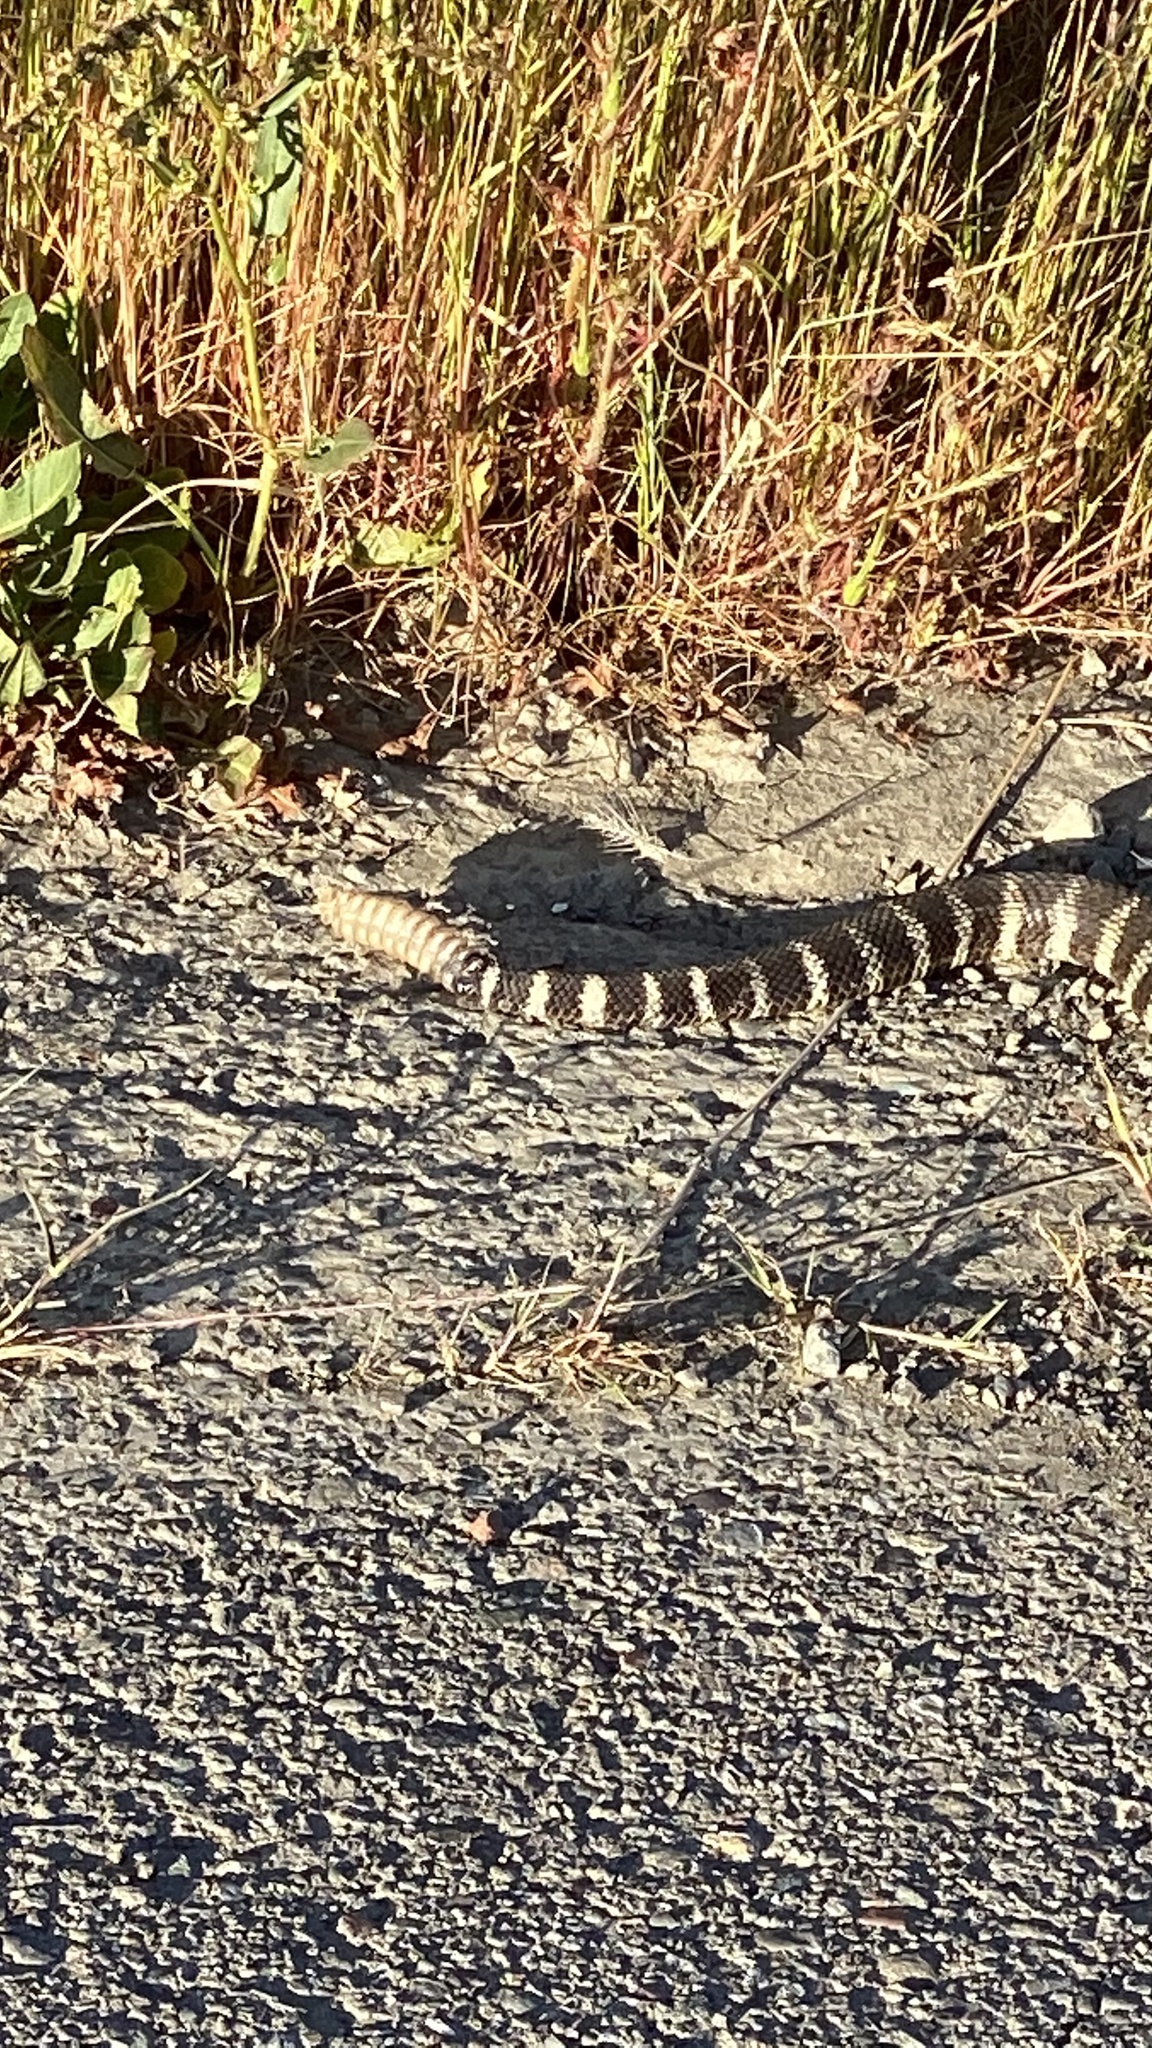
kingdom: Animalia
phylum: Chordata
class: Squamata
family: Viperidae
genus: Crotalus
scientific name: Crotalus oreganus
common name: Abyssus
